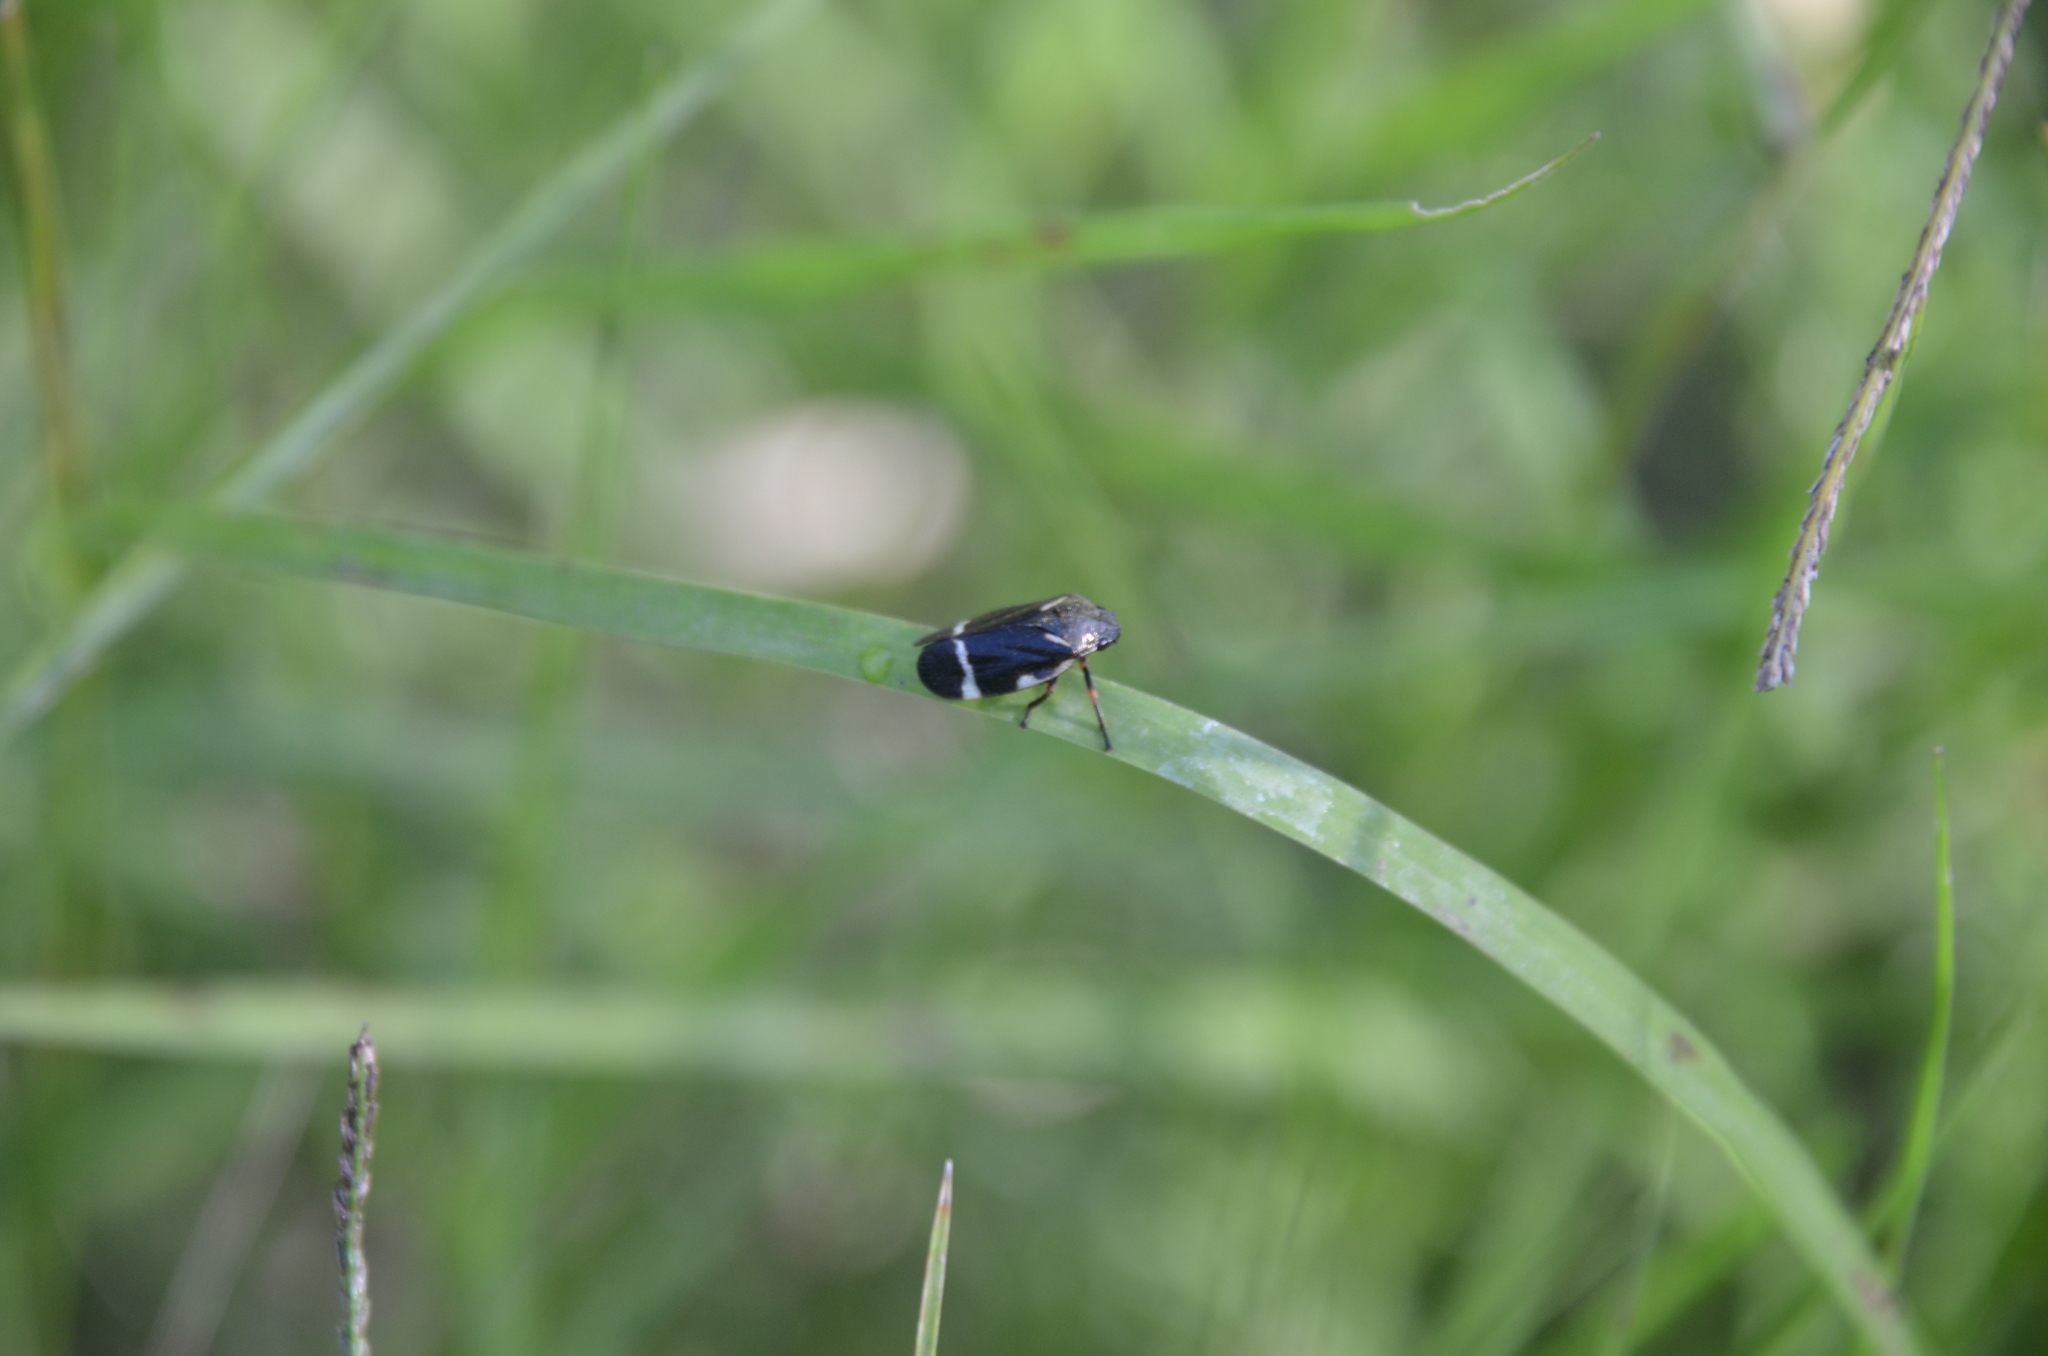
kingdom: Animalia
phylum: Arthropoda
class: Insecta
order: Hemiptera
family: Cercopidae
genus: Notozulia
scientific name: Notozulia entreriana
